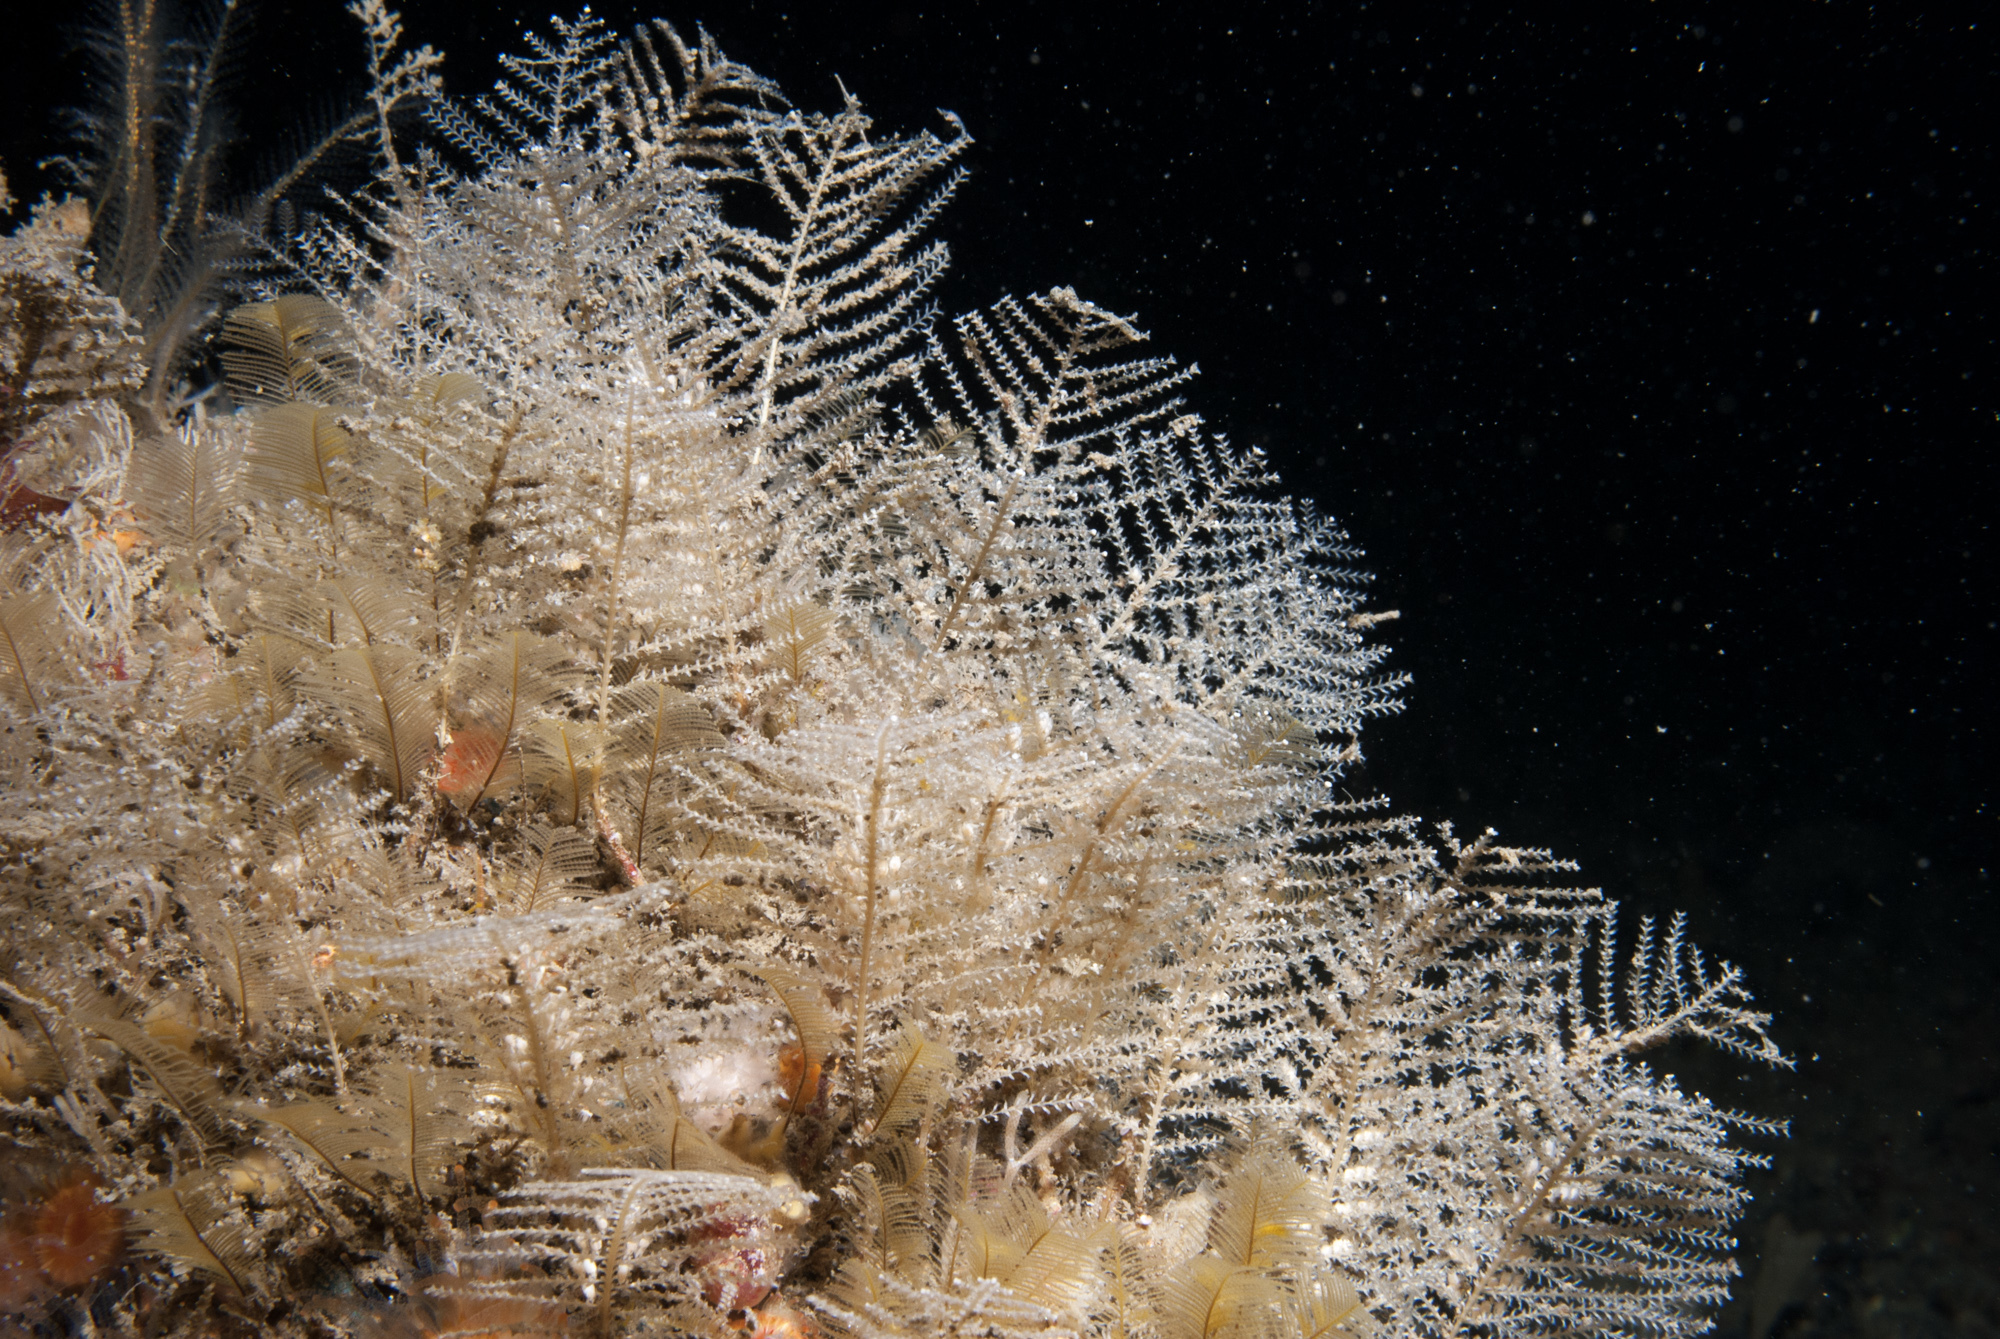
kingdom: Animalia
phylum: Cnidaria
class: Hydrozoa
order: Leptothecata
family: Sertulariidae
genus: Diphasia
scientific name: Diphasia margareta
